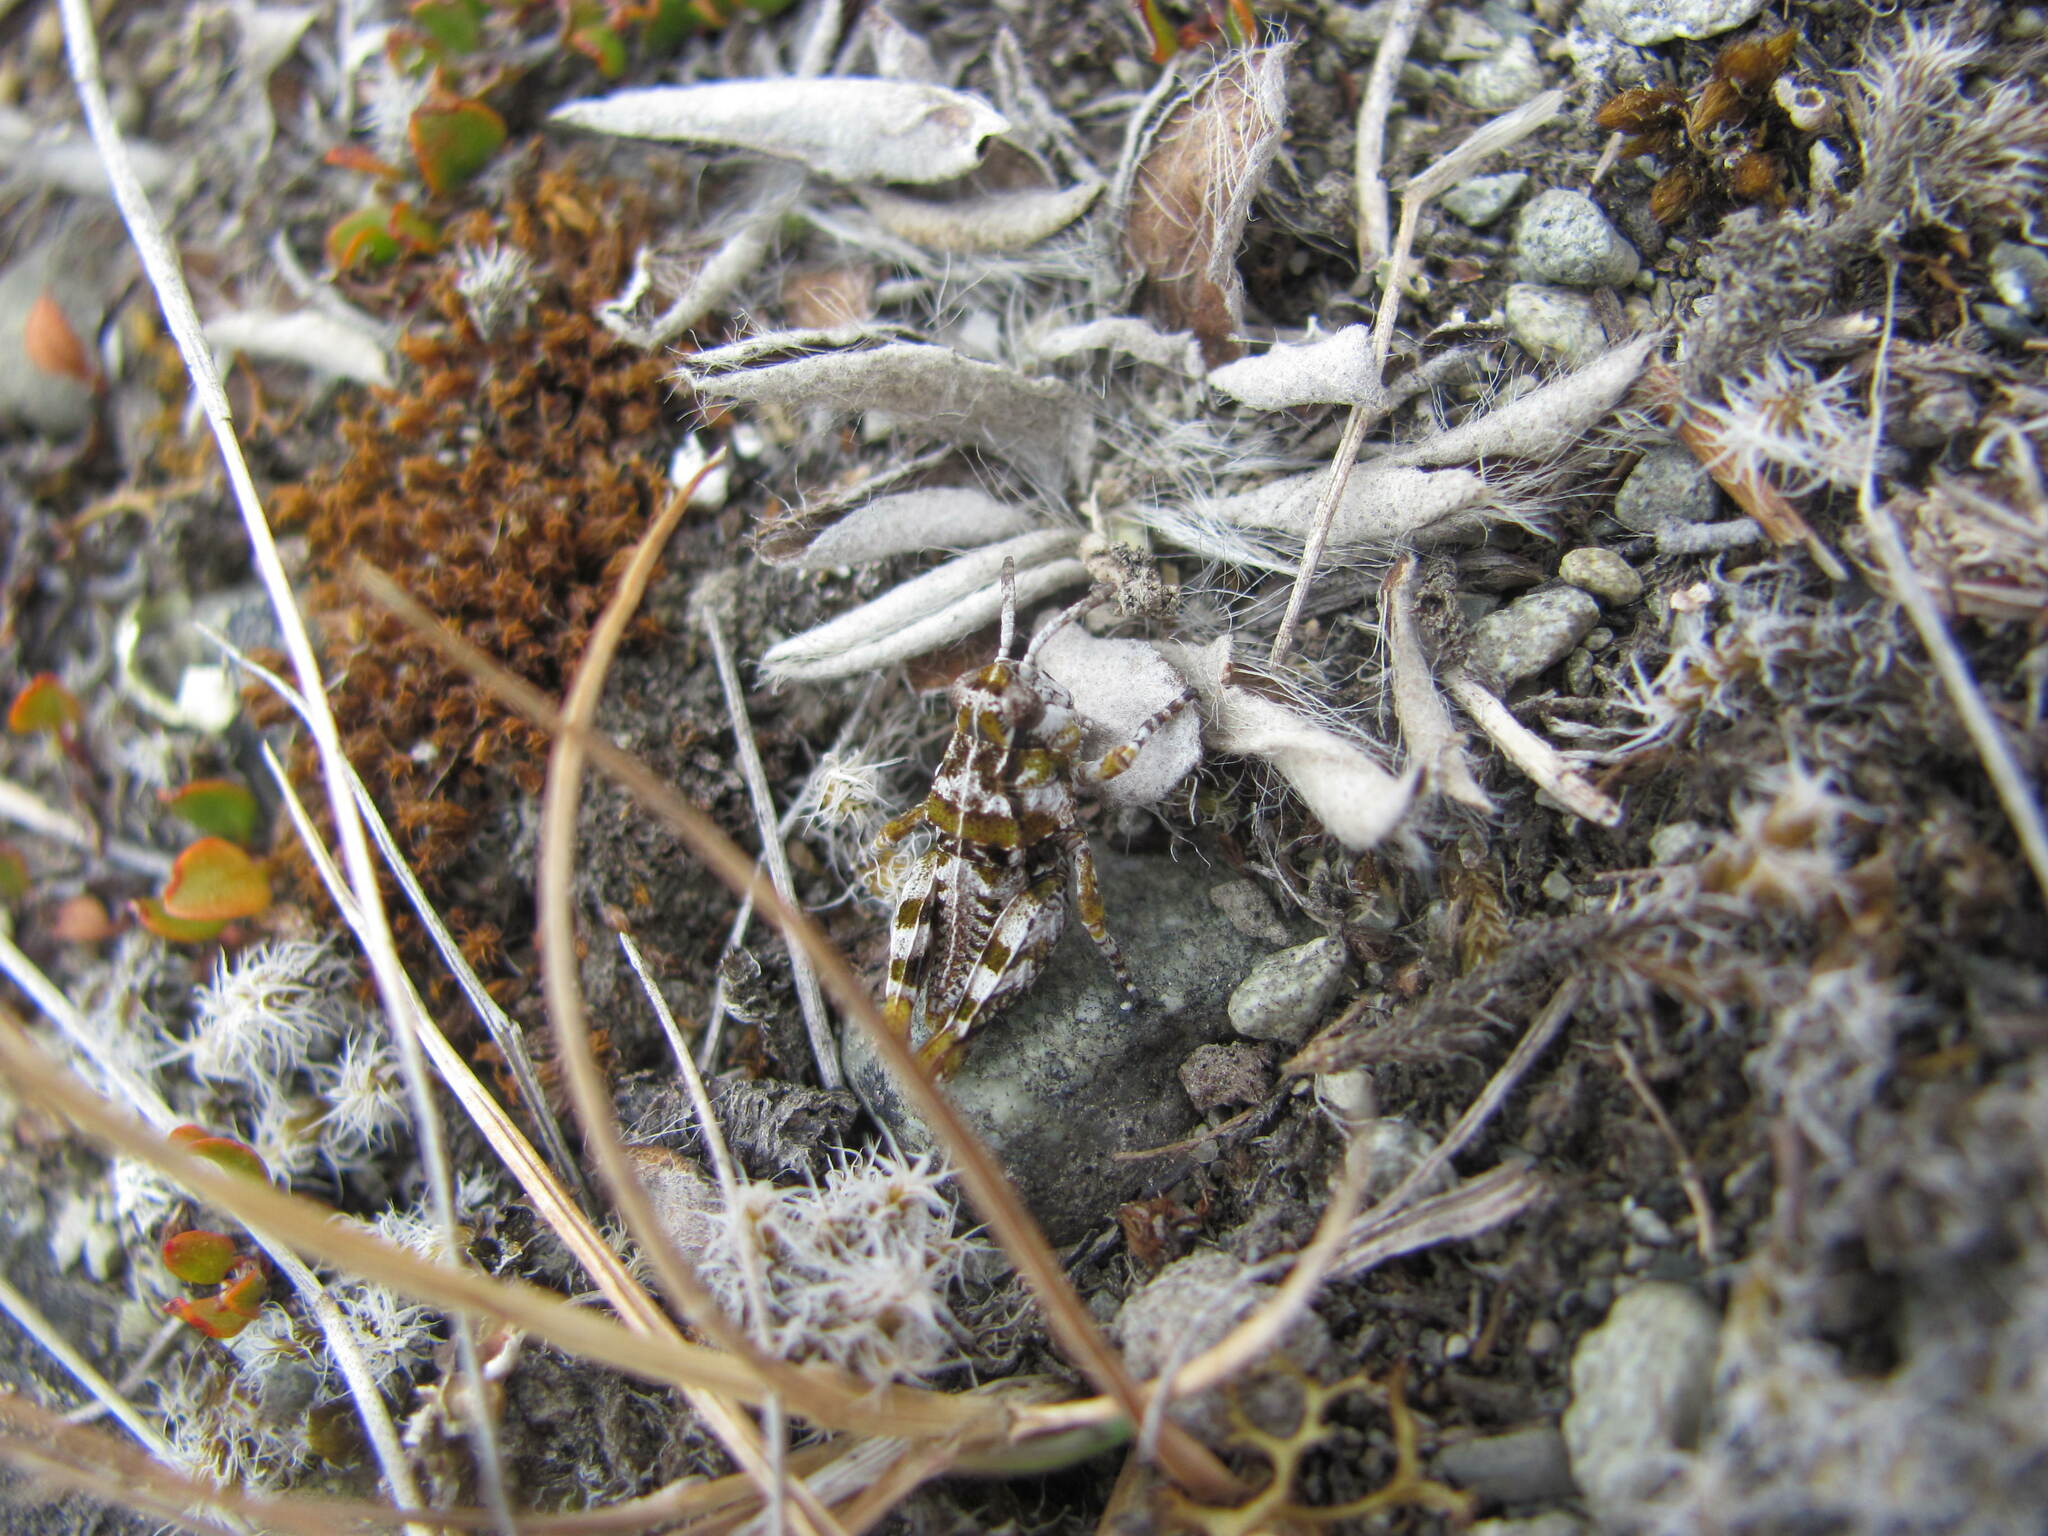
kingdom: Animalia
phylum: Arthropoda
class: Insecta
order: Orthoptera
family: Acrididae
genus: Phaulacridium
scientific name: Phaulacridium otagoense
